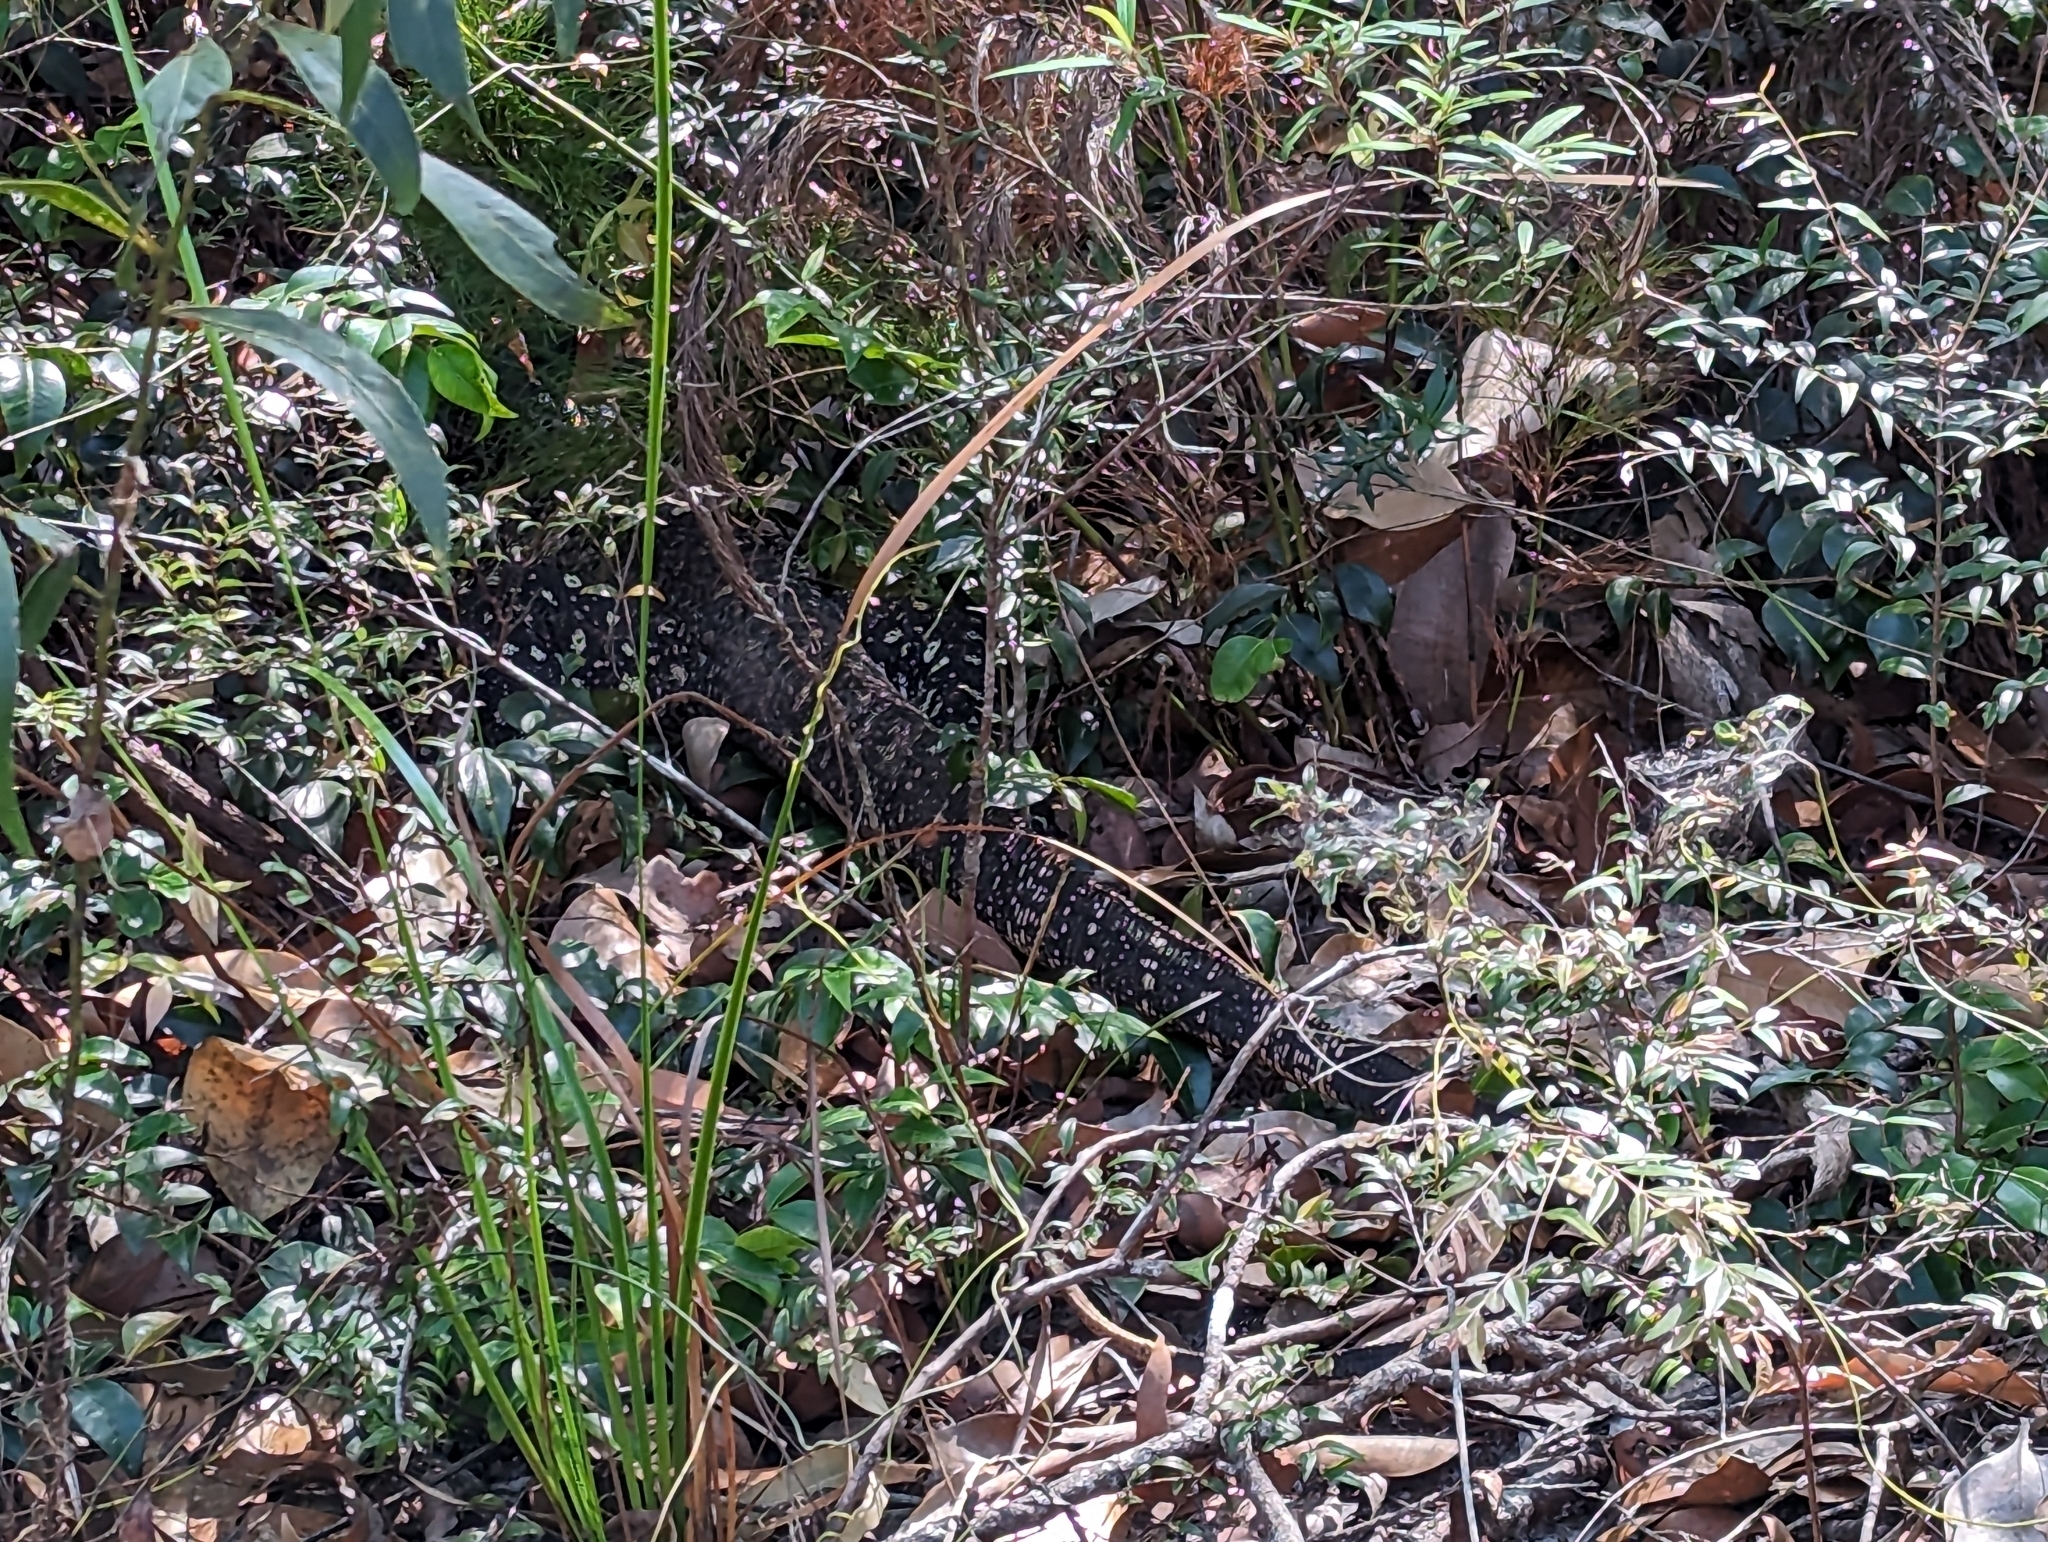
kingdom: Animalia
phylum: Chordata
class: Squamata
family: Varanidae
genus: Varanus
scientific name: Varanus varius
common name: Lace monitor
